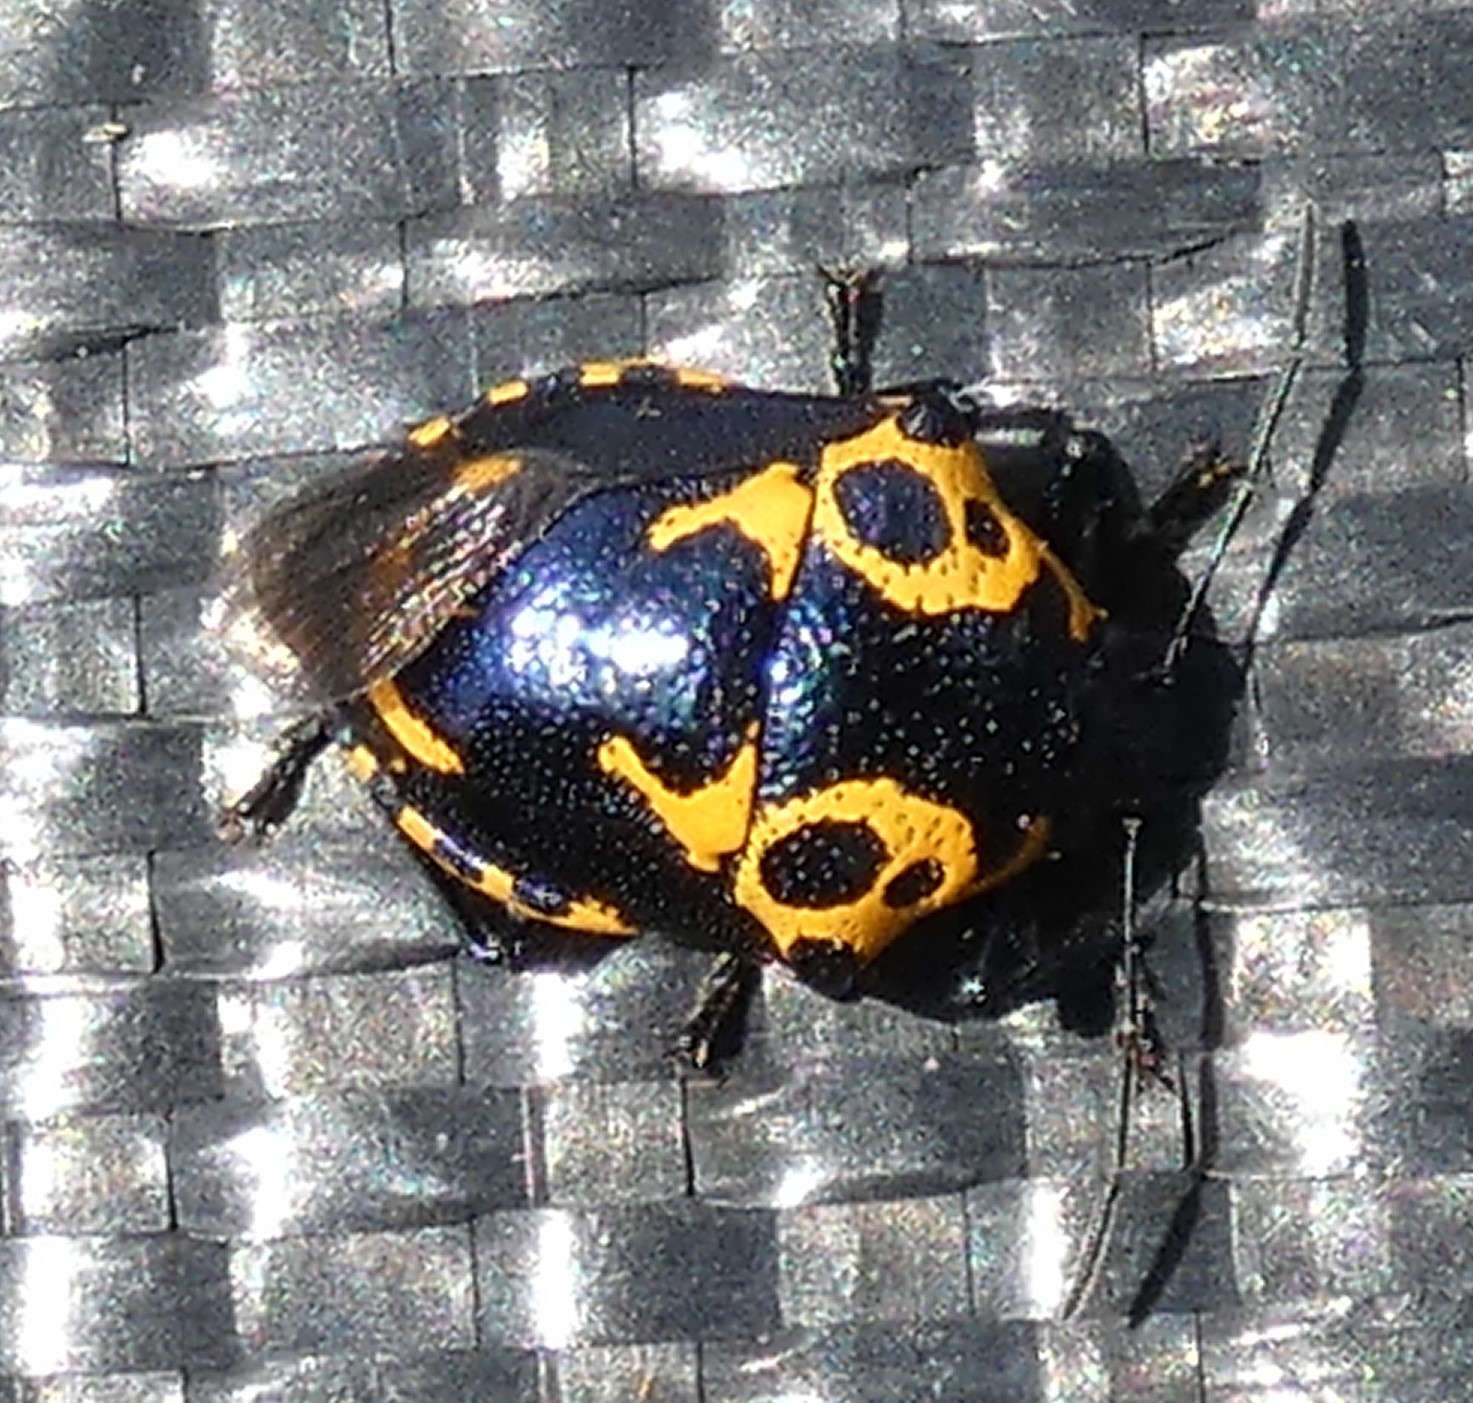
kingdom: Animalia
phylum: Arthropoda
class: Insecta
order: Hemiptera
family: Pentatomidae
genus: Stiretrus
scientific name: Stiretrus anchorago
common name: Anchor stink bug
